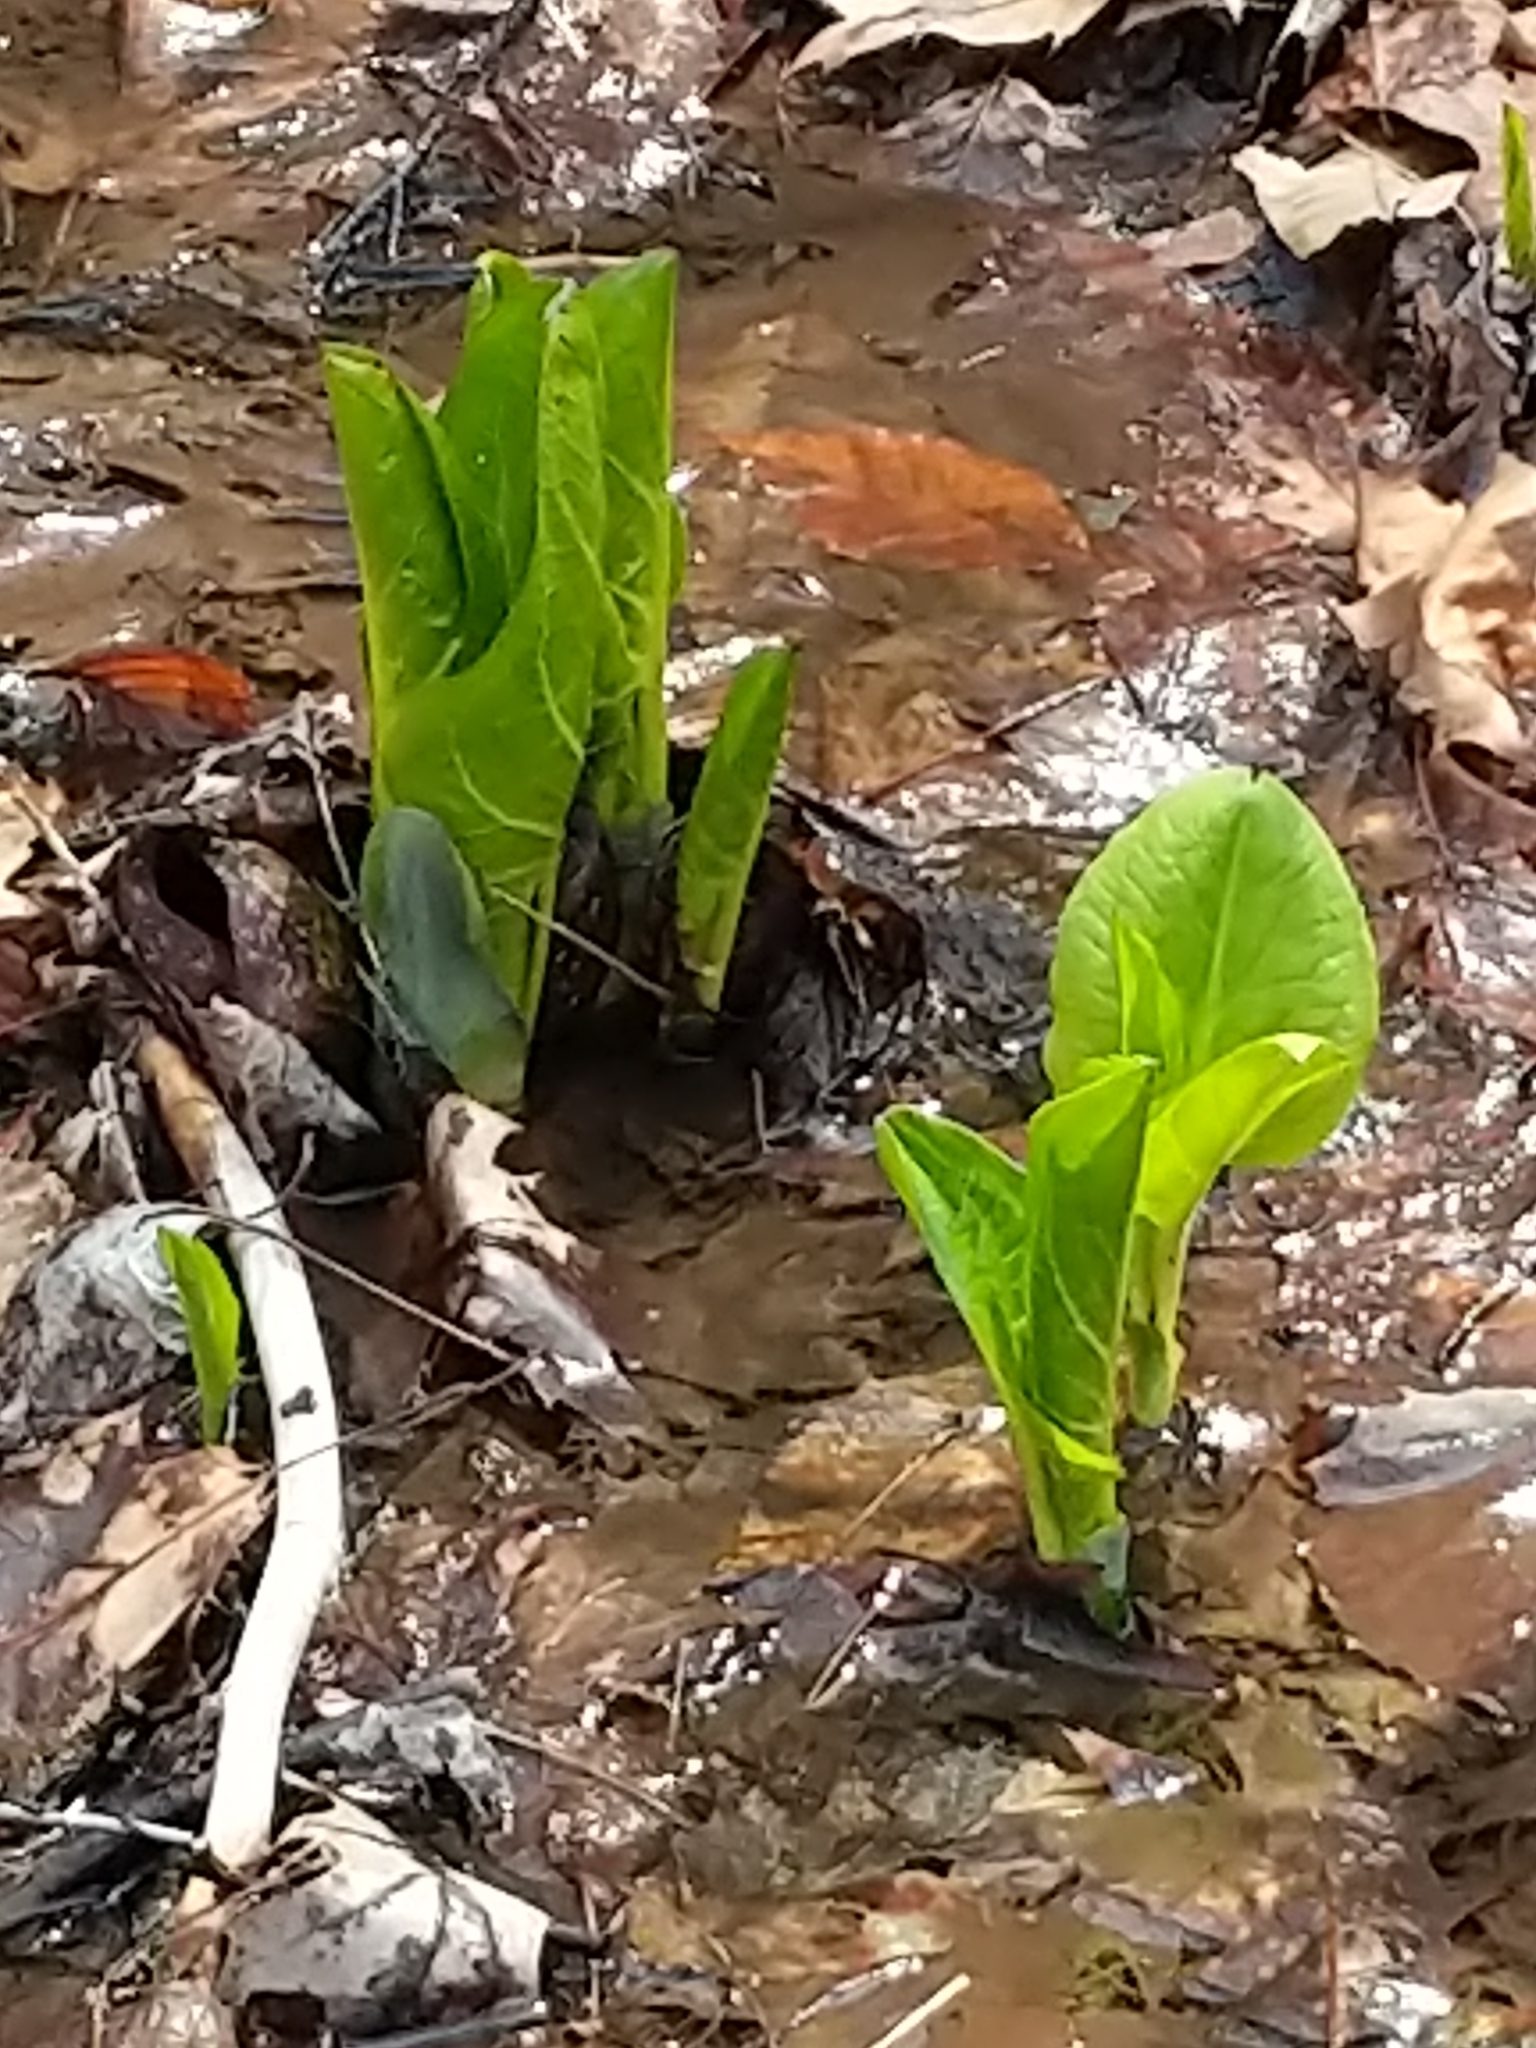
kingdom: Plantae
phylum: Tracheophyta
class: Liliopsida
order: Alismatales
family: Araceae
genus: Symplocarpus
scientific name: Symplocarpus foetidus
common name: Eastern skunk cabbage
